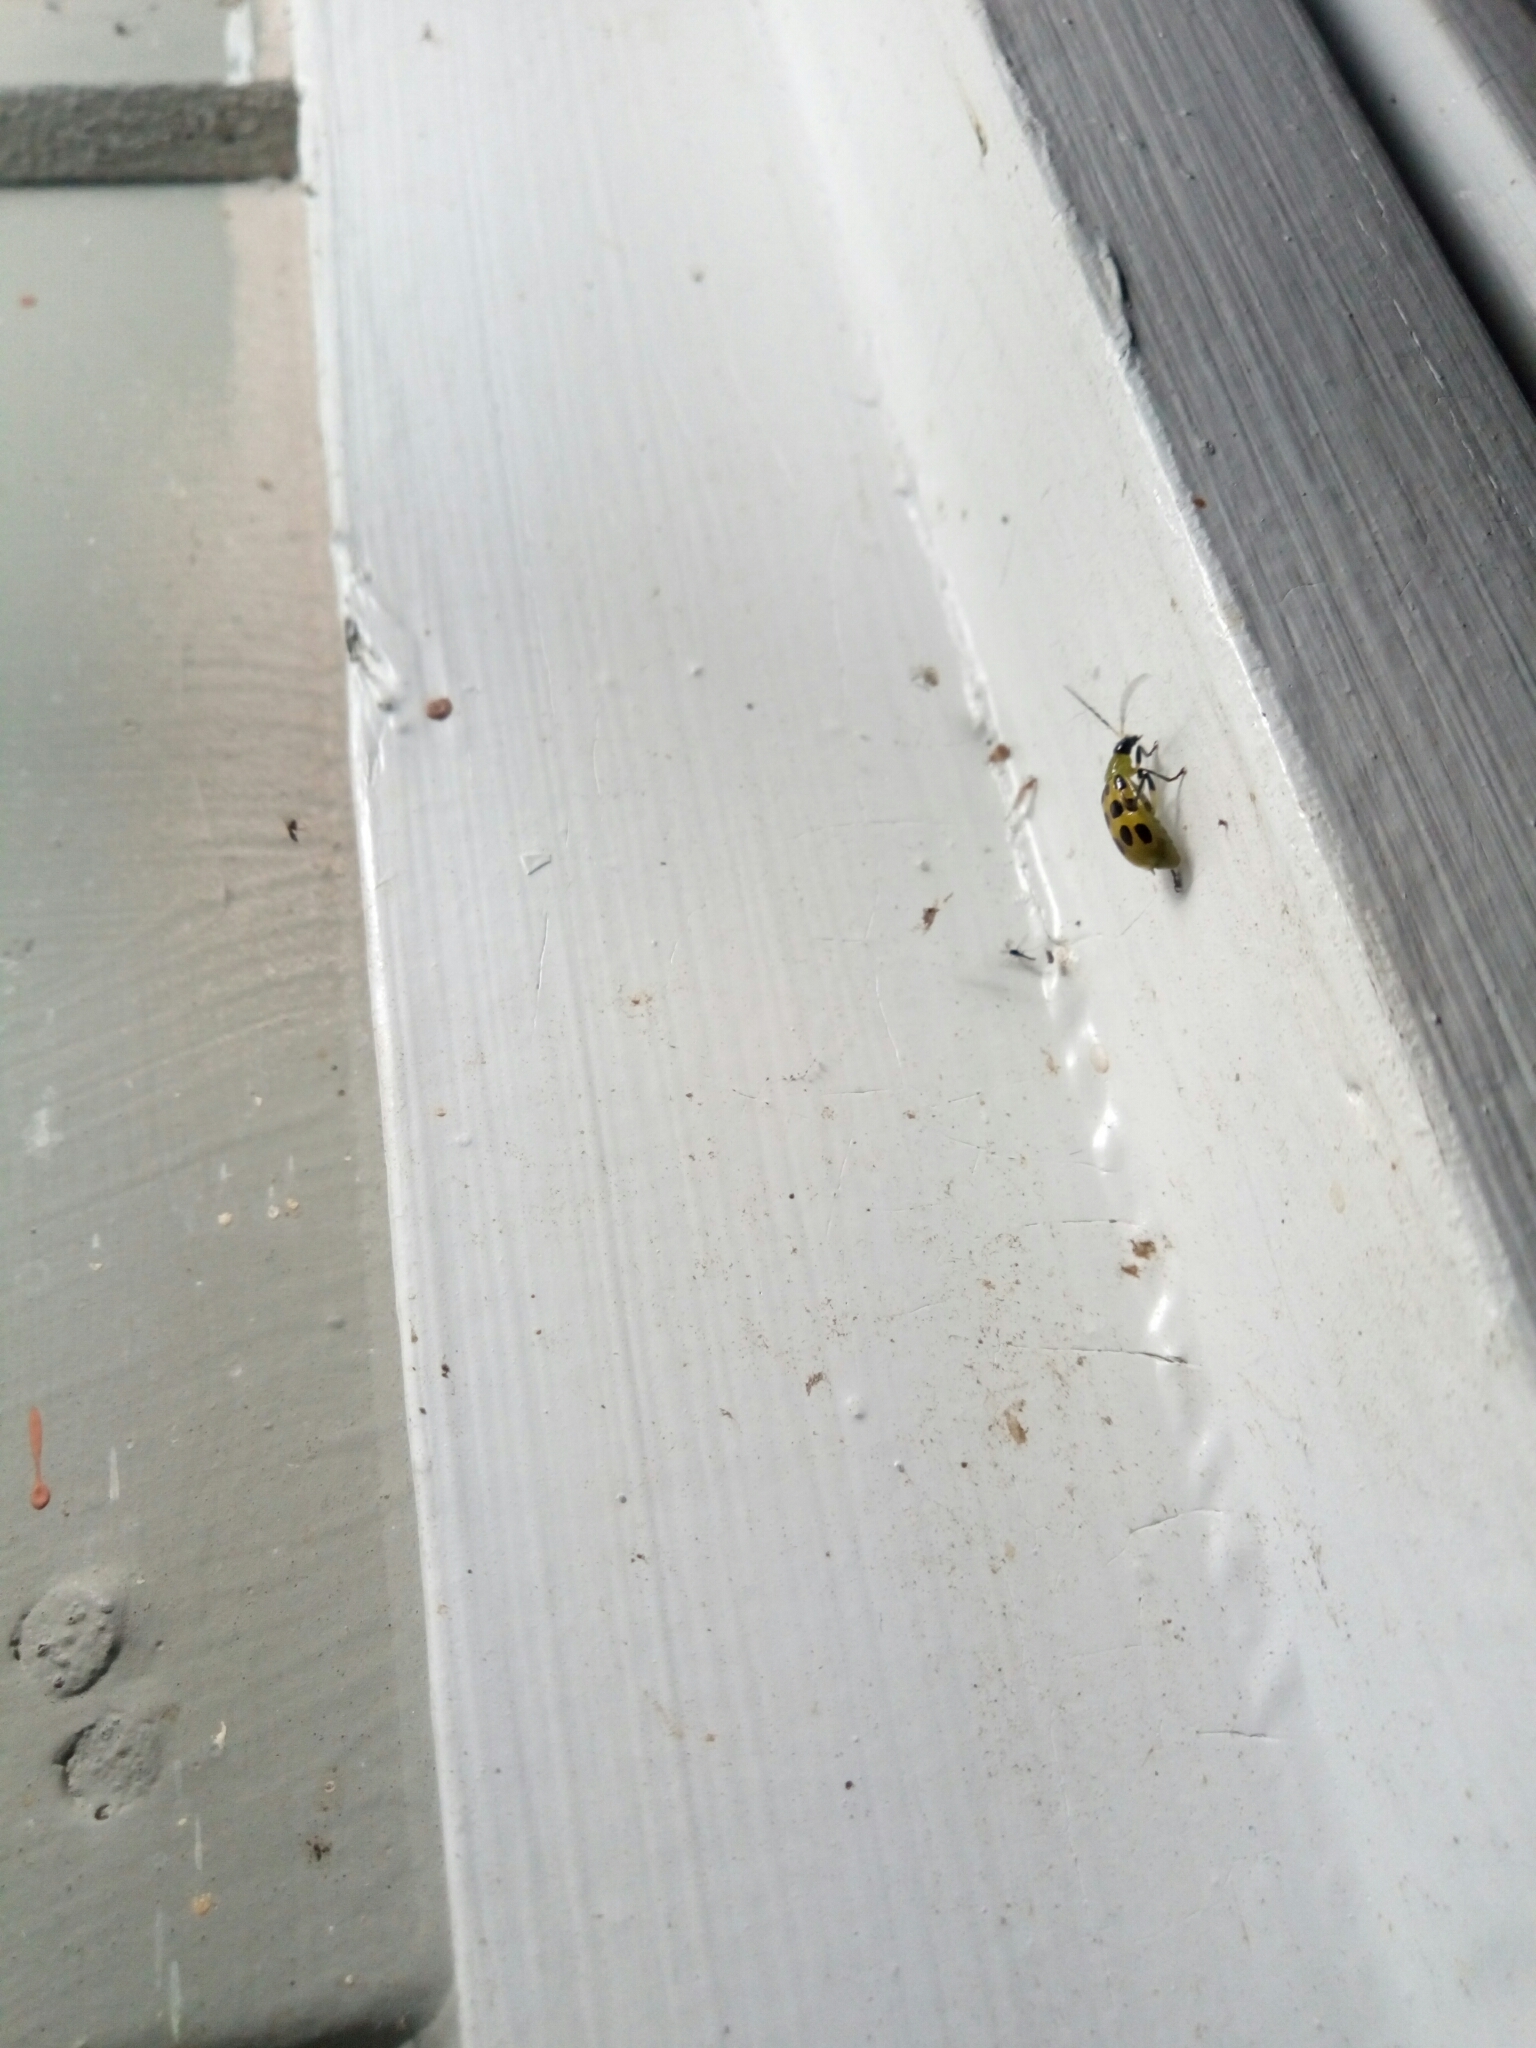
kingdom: Animalia
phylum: Arthropoda
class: Insecta
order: Coleoptera
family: Chrysomelidae
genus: Diabrotica
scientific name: Diabrotica undecimpunctata
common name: Spotted cucumber beetle
